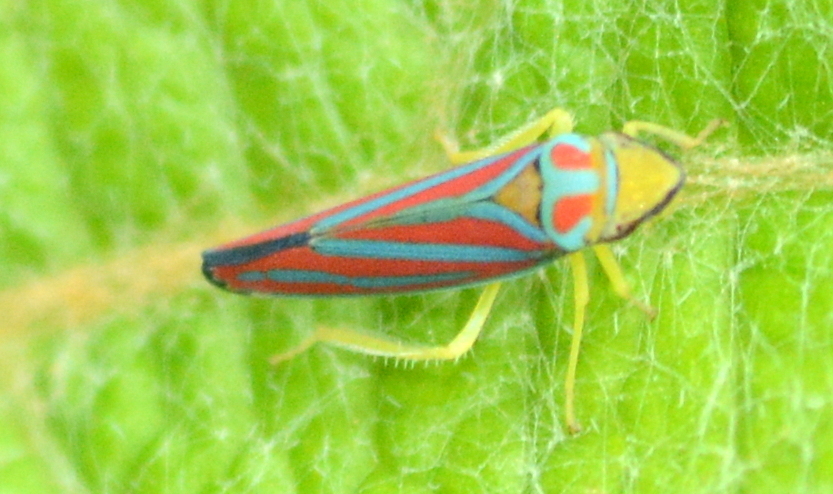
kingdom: Animalia
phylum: Arthropoda
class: Insecta
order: Hemiptera
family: Cicadellidae
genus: Graphocephala
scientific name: Graphocephala coccinea
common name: Candy-striped leafhopper
